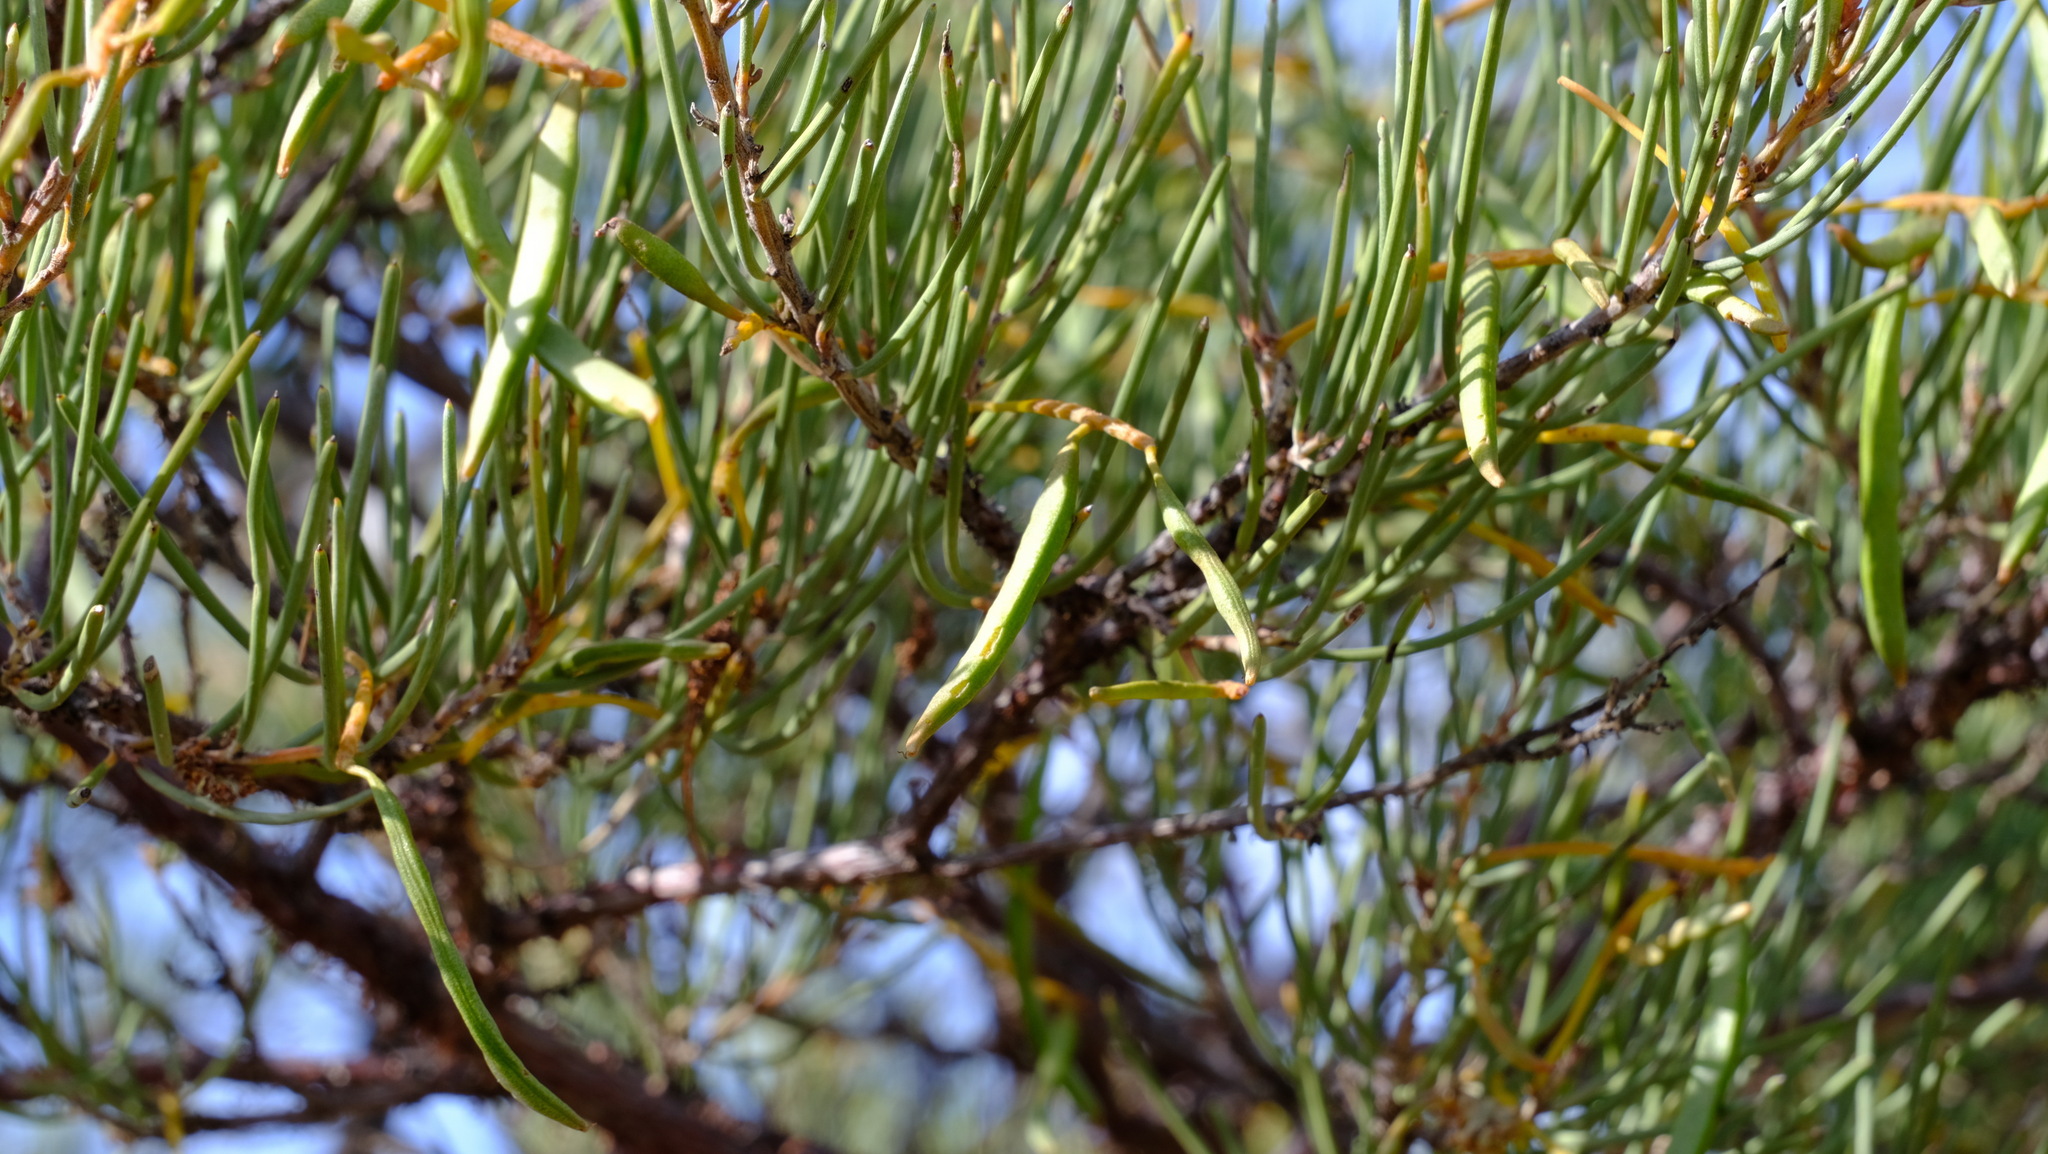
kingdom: Plantae
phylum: Tracheophyta
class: Magnoliopsida
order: Fabales
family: Fabaceae
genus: Acacia
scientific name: Acacia grasbyi
